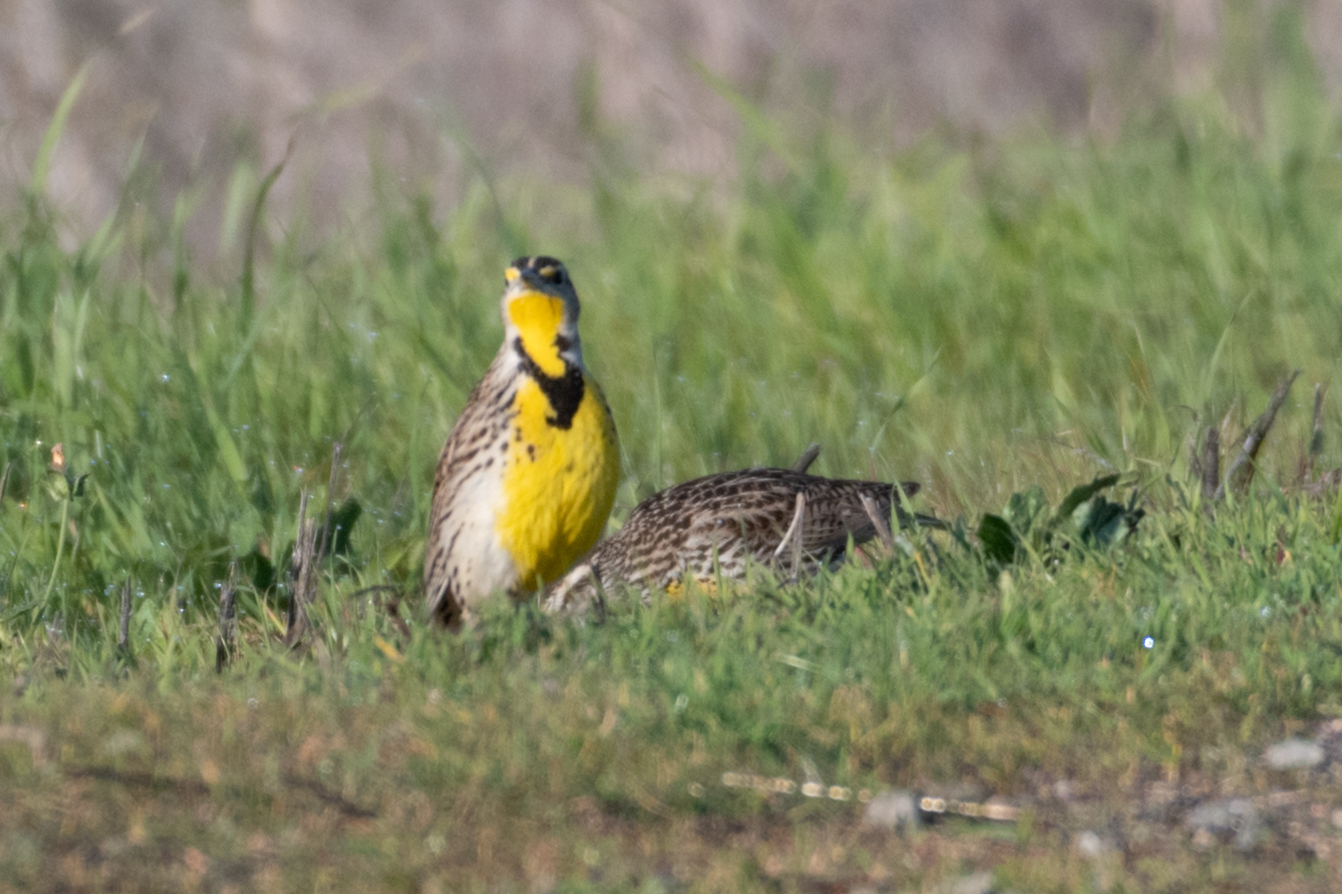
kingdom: Animalia
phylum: Chordata
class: Aves
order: Passeriformes
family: Icteridae
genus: Sturnella
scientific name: Sturnella neglecta
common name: Western meadowlark
